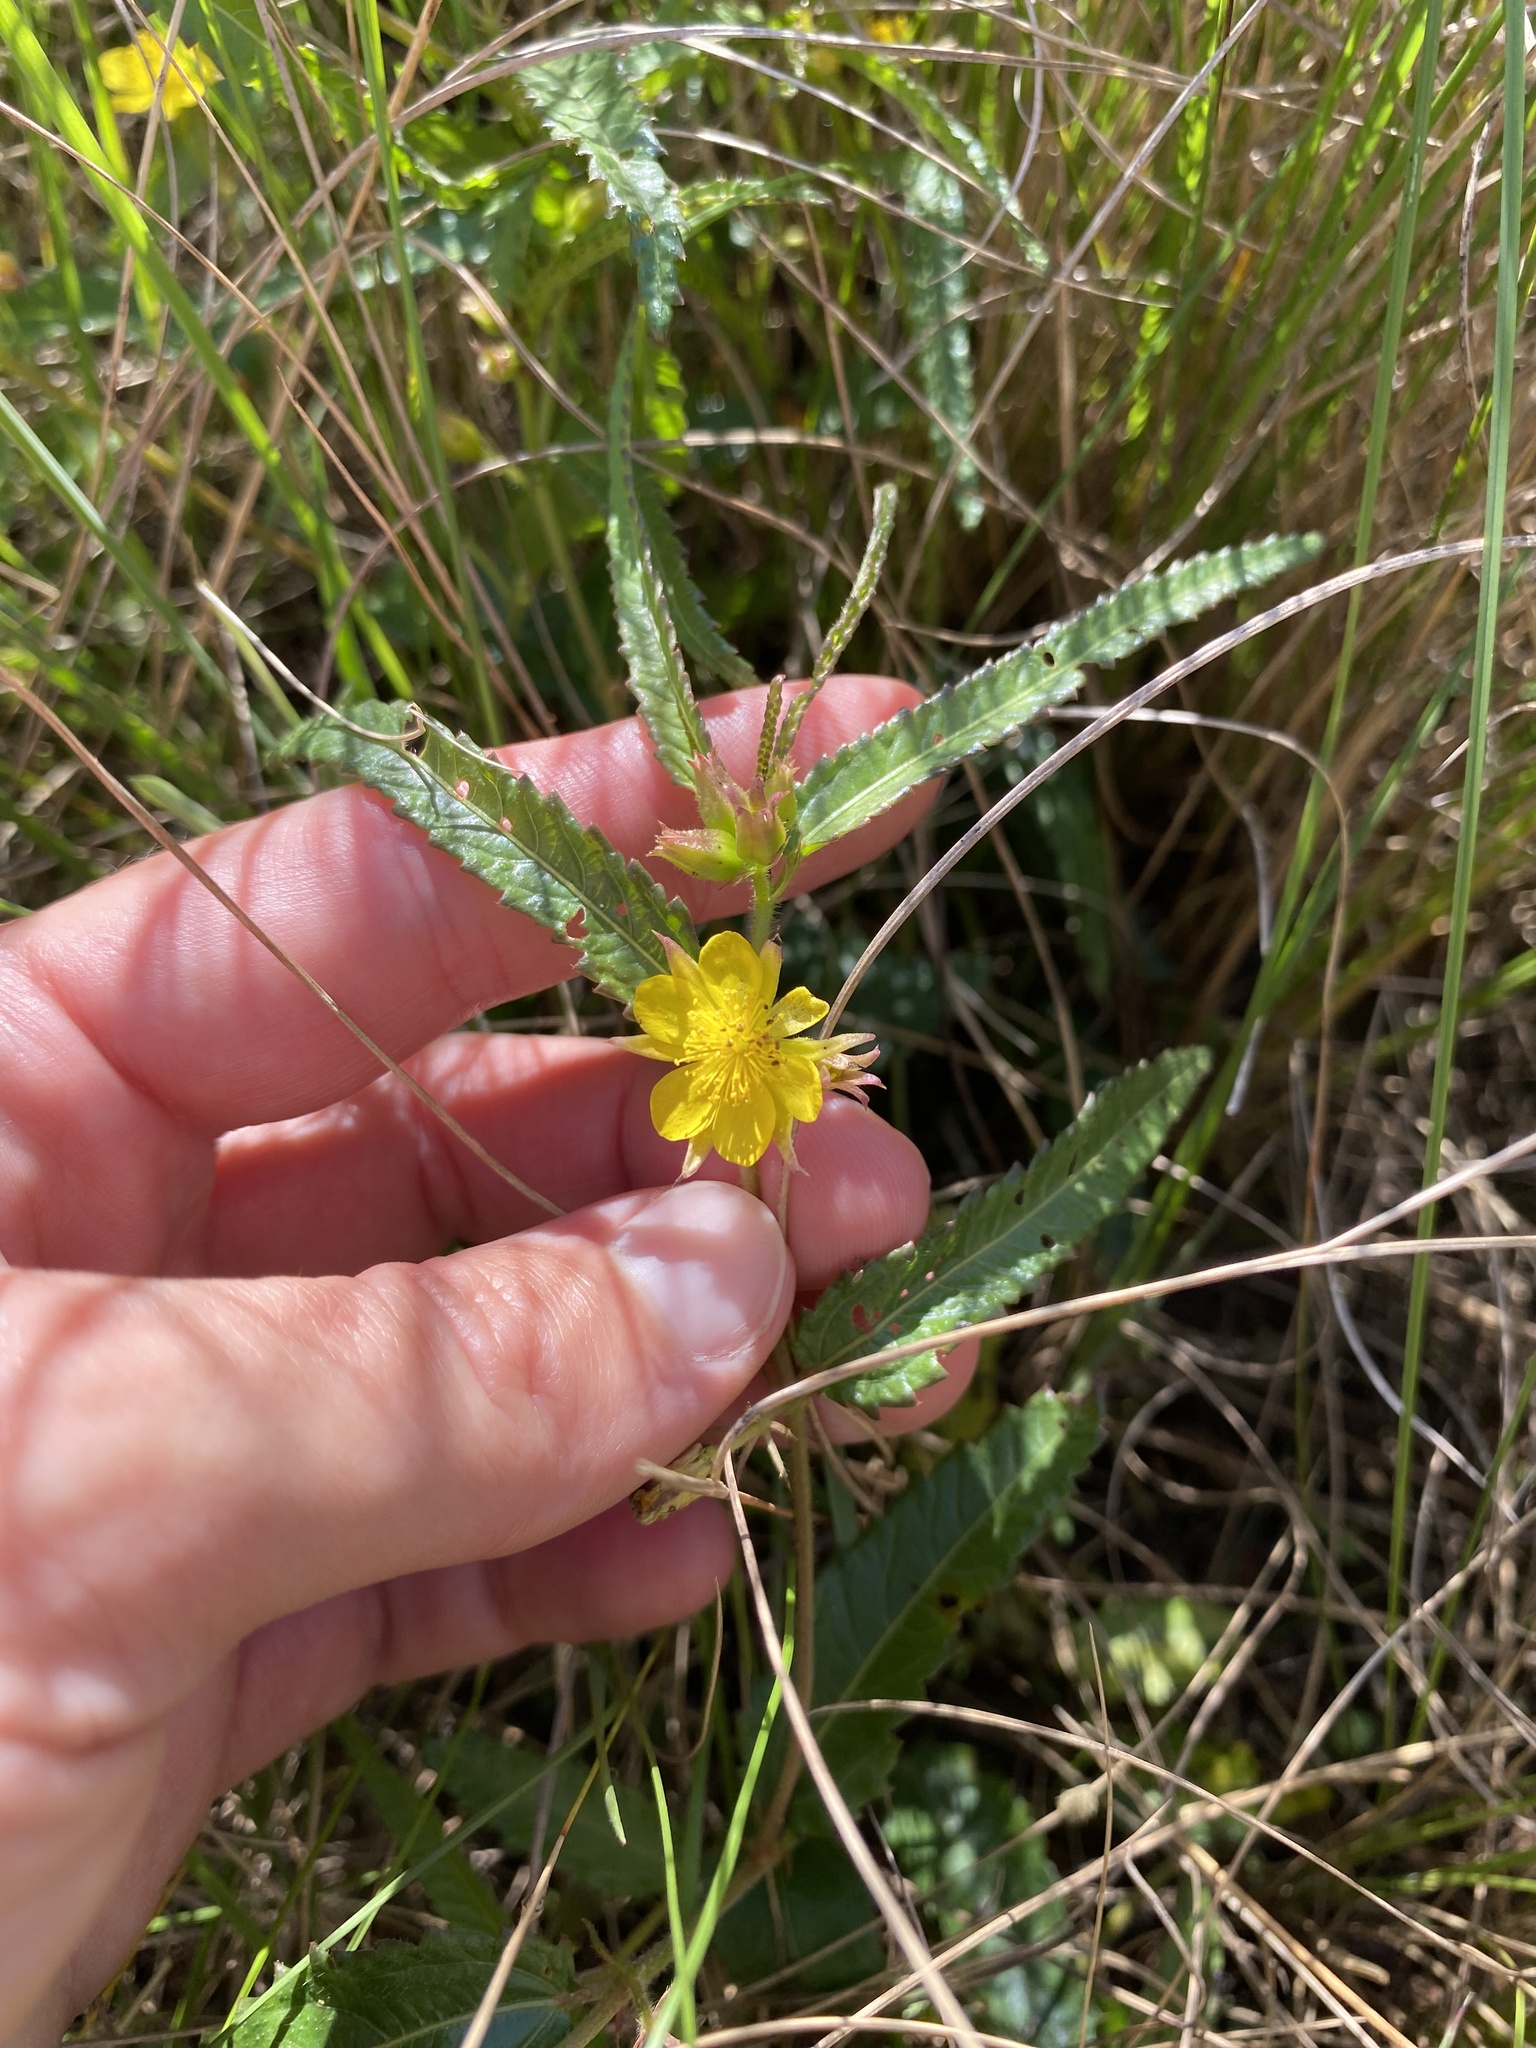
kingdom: Plantae
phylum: Tracheophyta
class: Magnoliopsida
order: Malvales
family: Malvaceae
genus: Corchorus
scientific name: Corchorus confusus
